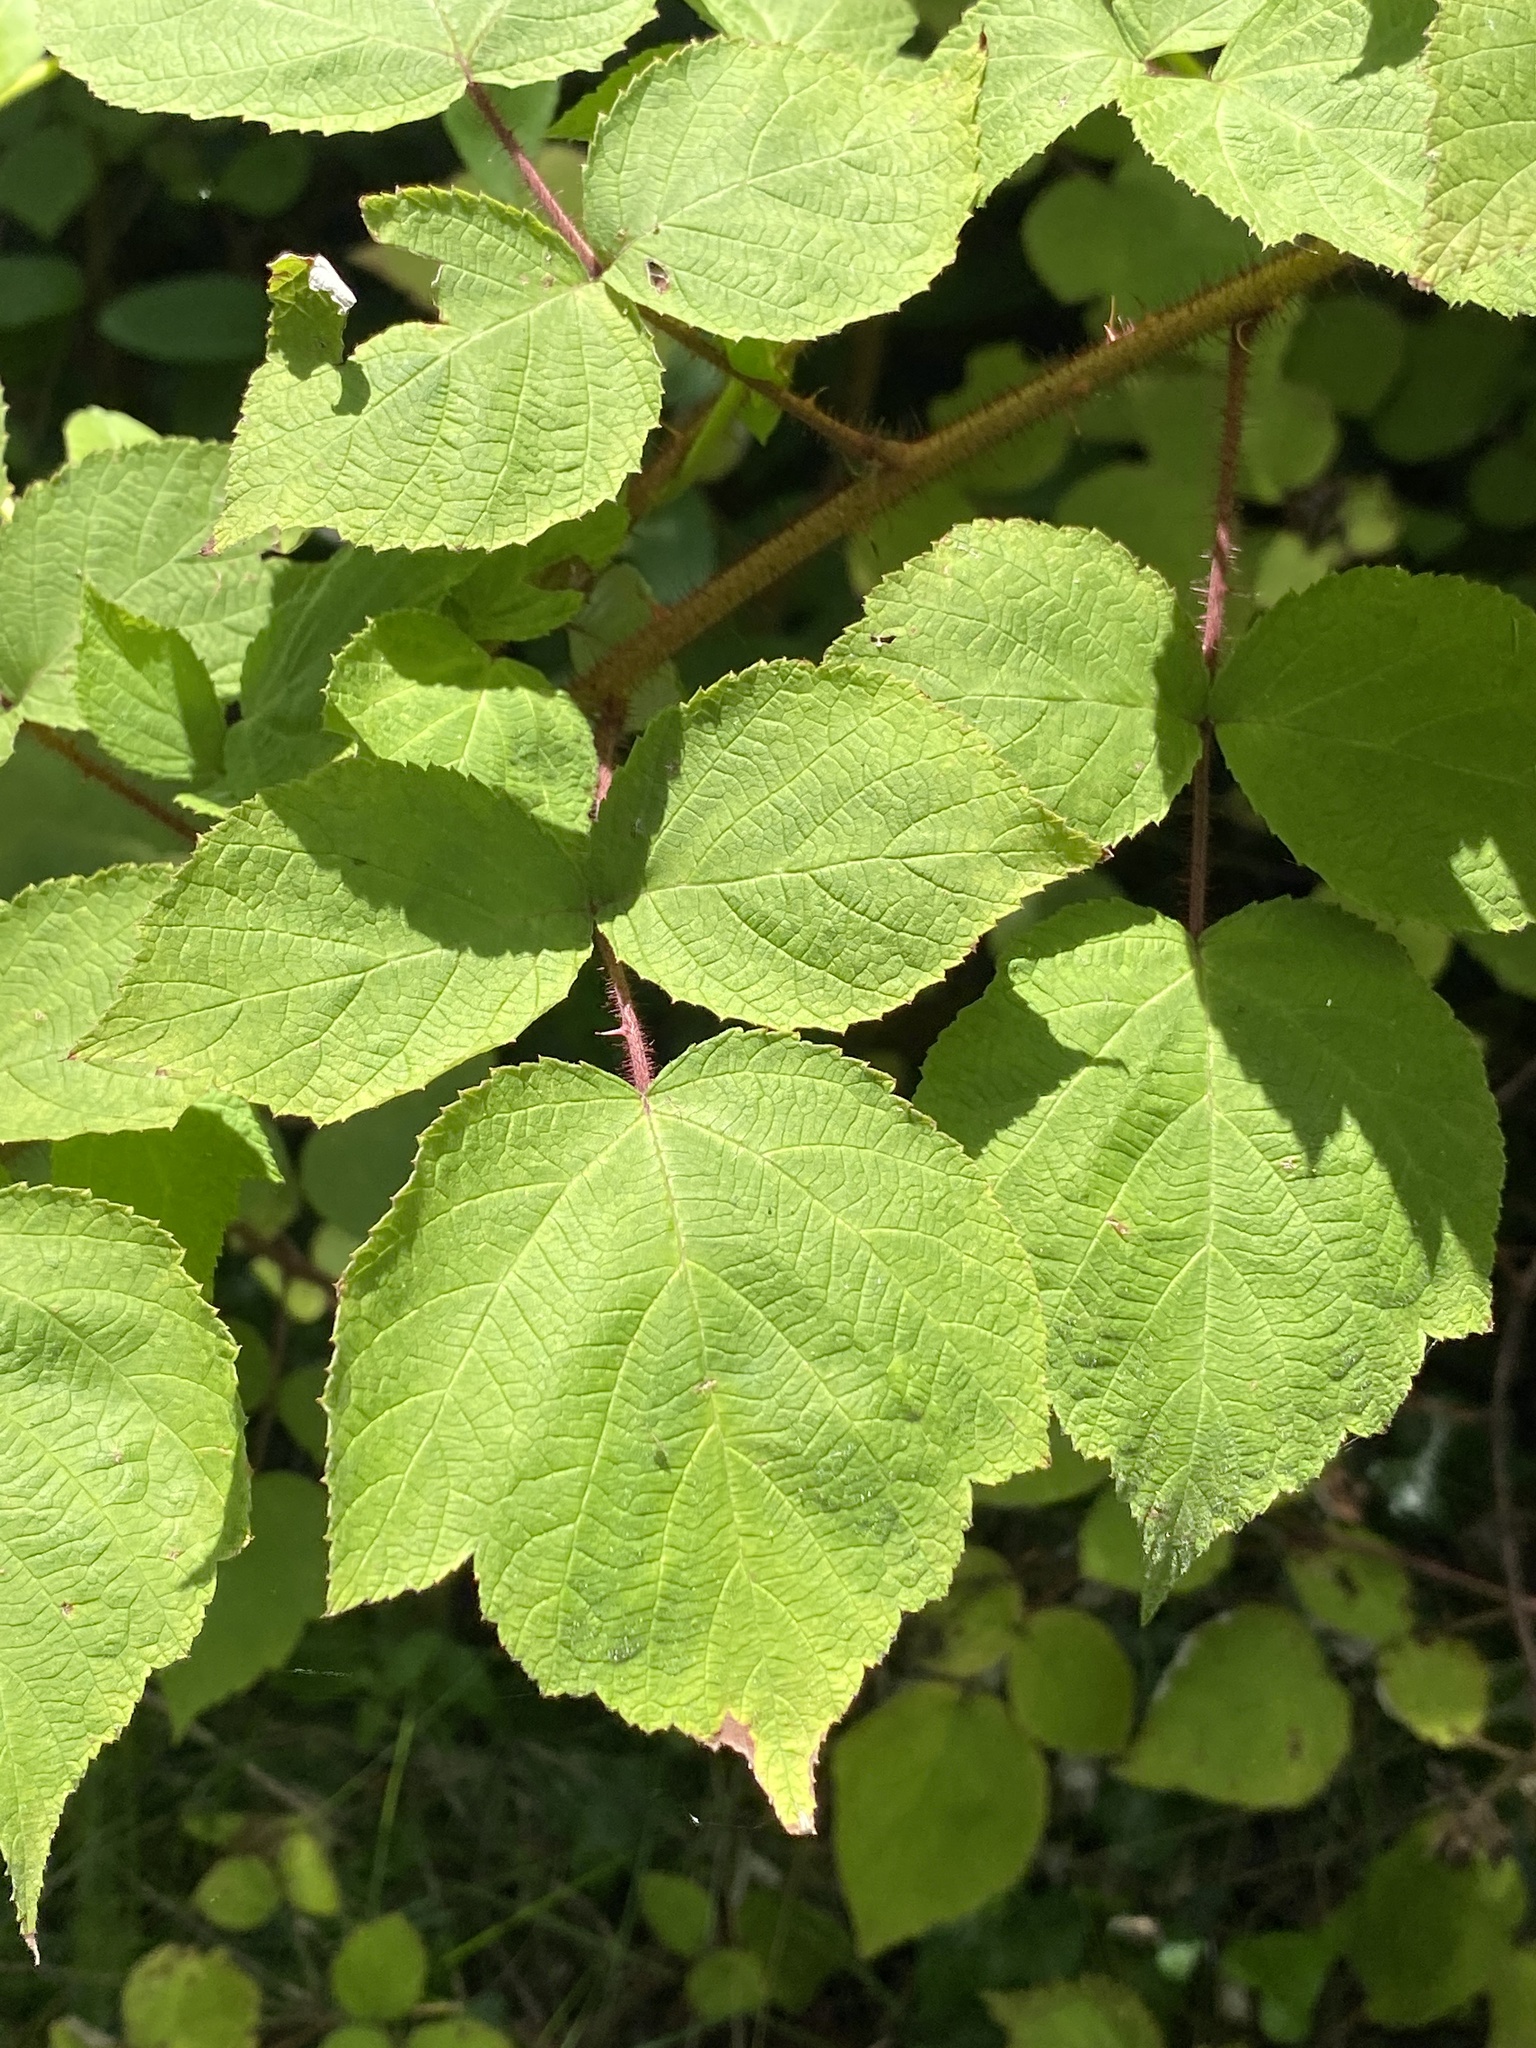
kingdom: Plantae
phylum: Tracheophyta
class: Magnoliopsida
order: Rosales
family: Rosaceae
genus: Rubus
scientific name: Rubus phoenicolasius
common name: Japanese wineberry
